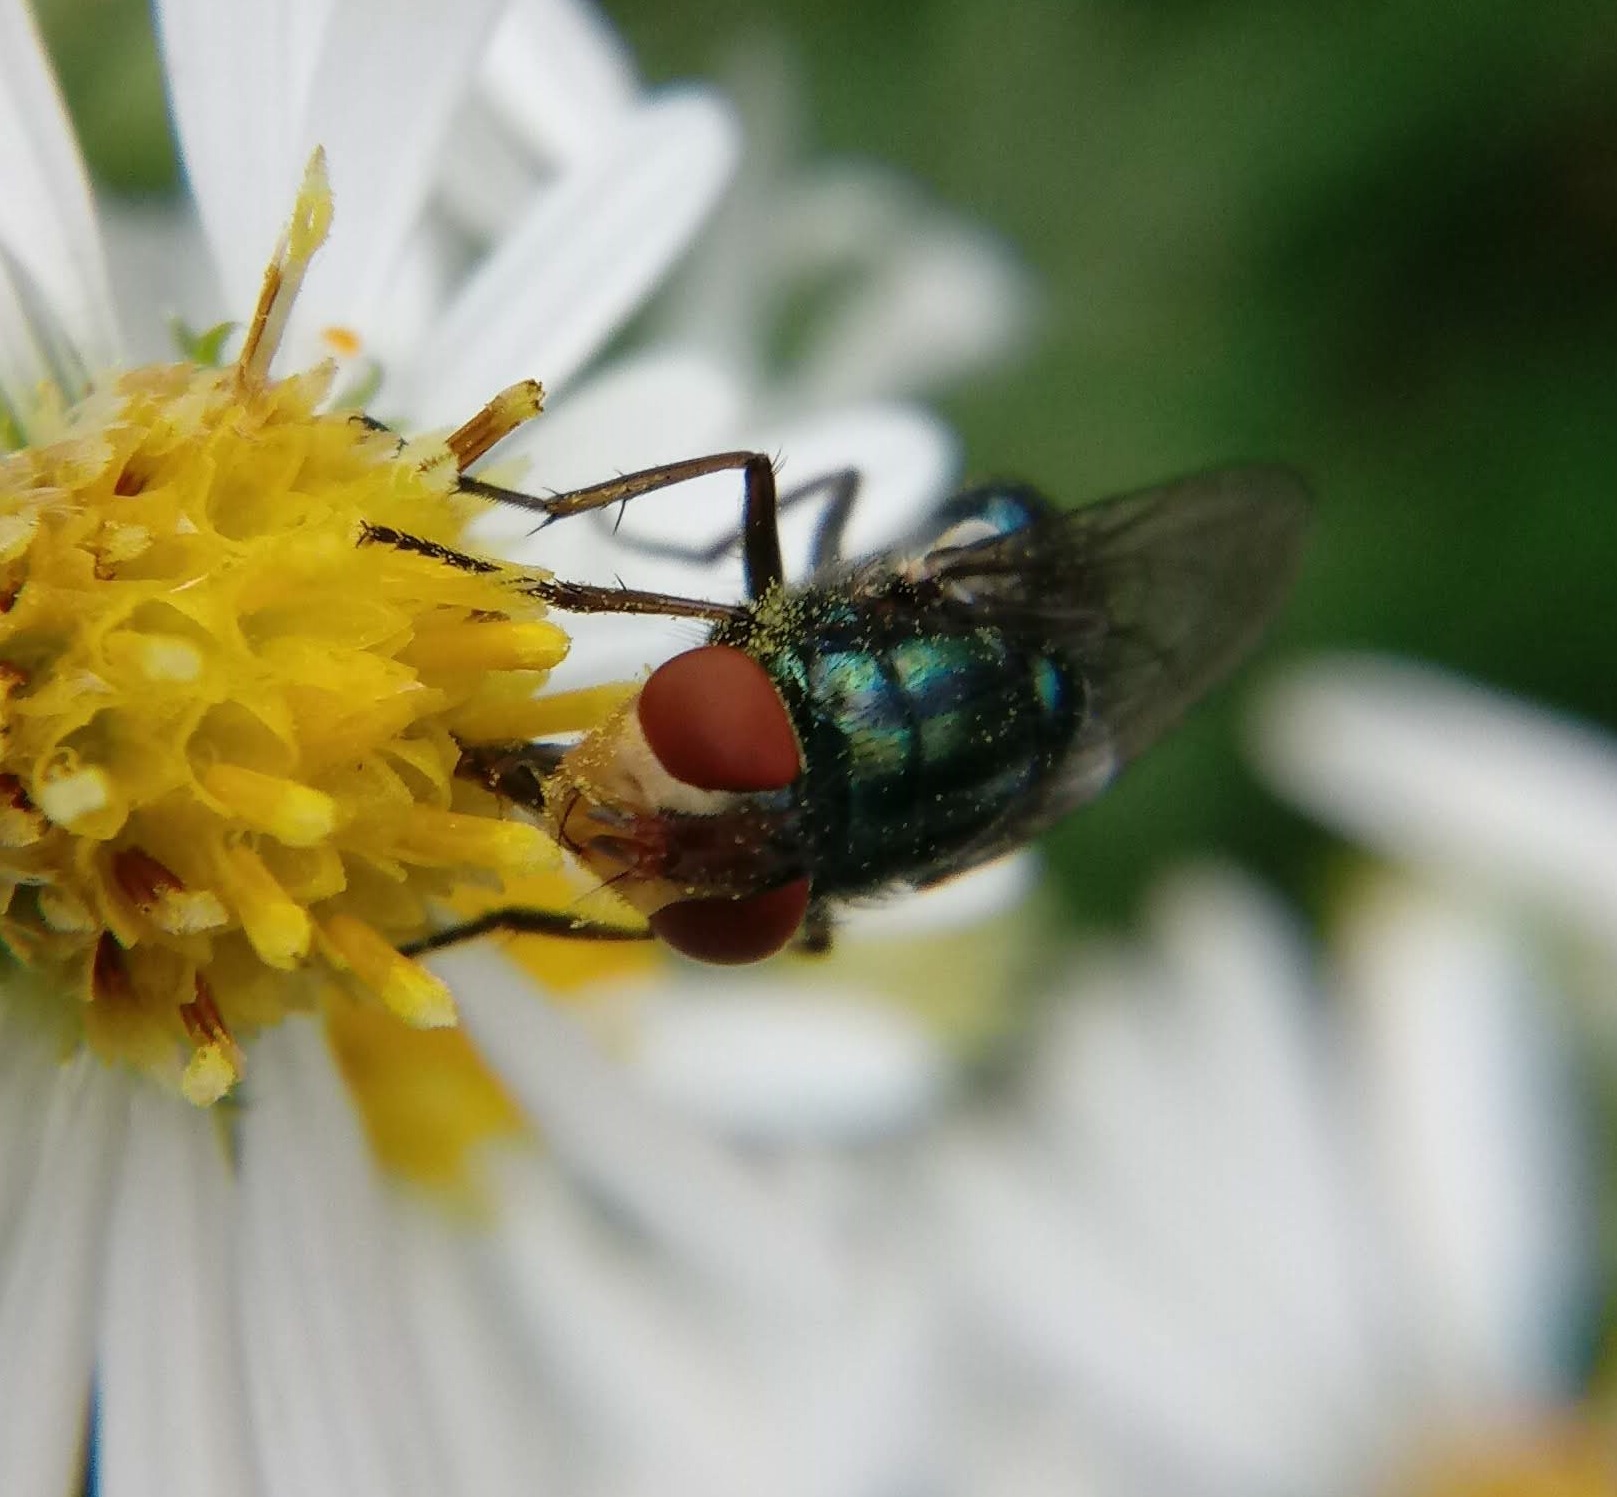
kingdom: Animalia
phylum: Arthropoda
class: Insecta
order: Diptera
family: Calliphoridae
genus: Cochliomyia
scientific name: Cochliomyia macellaria
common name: Secondary screwworm
